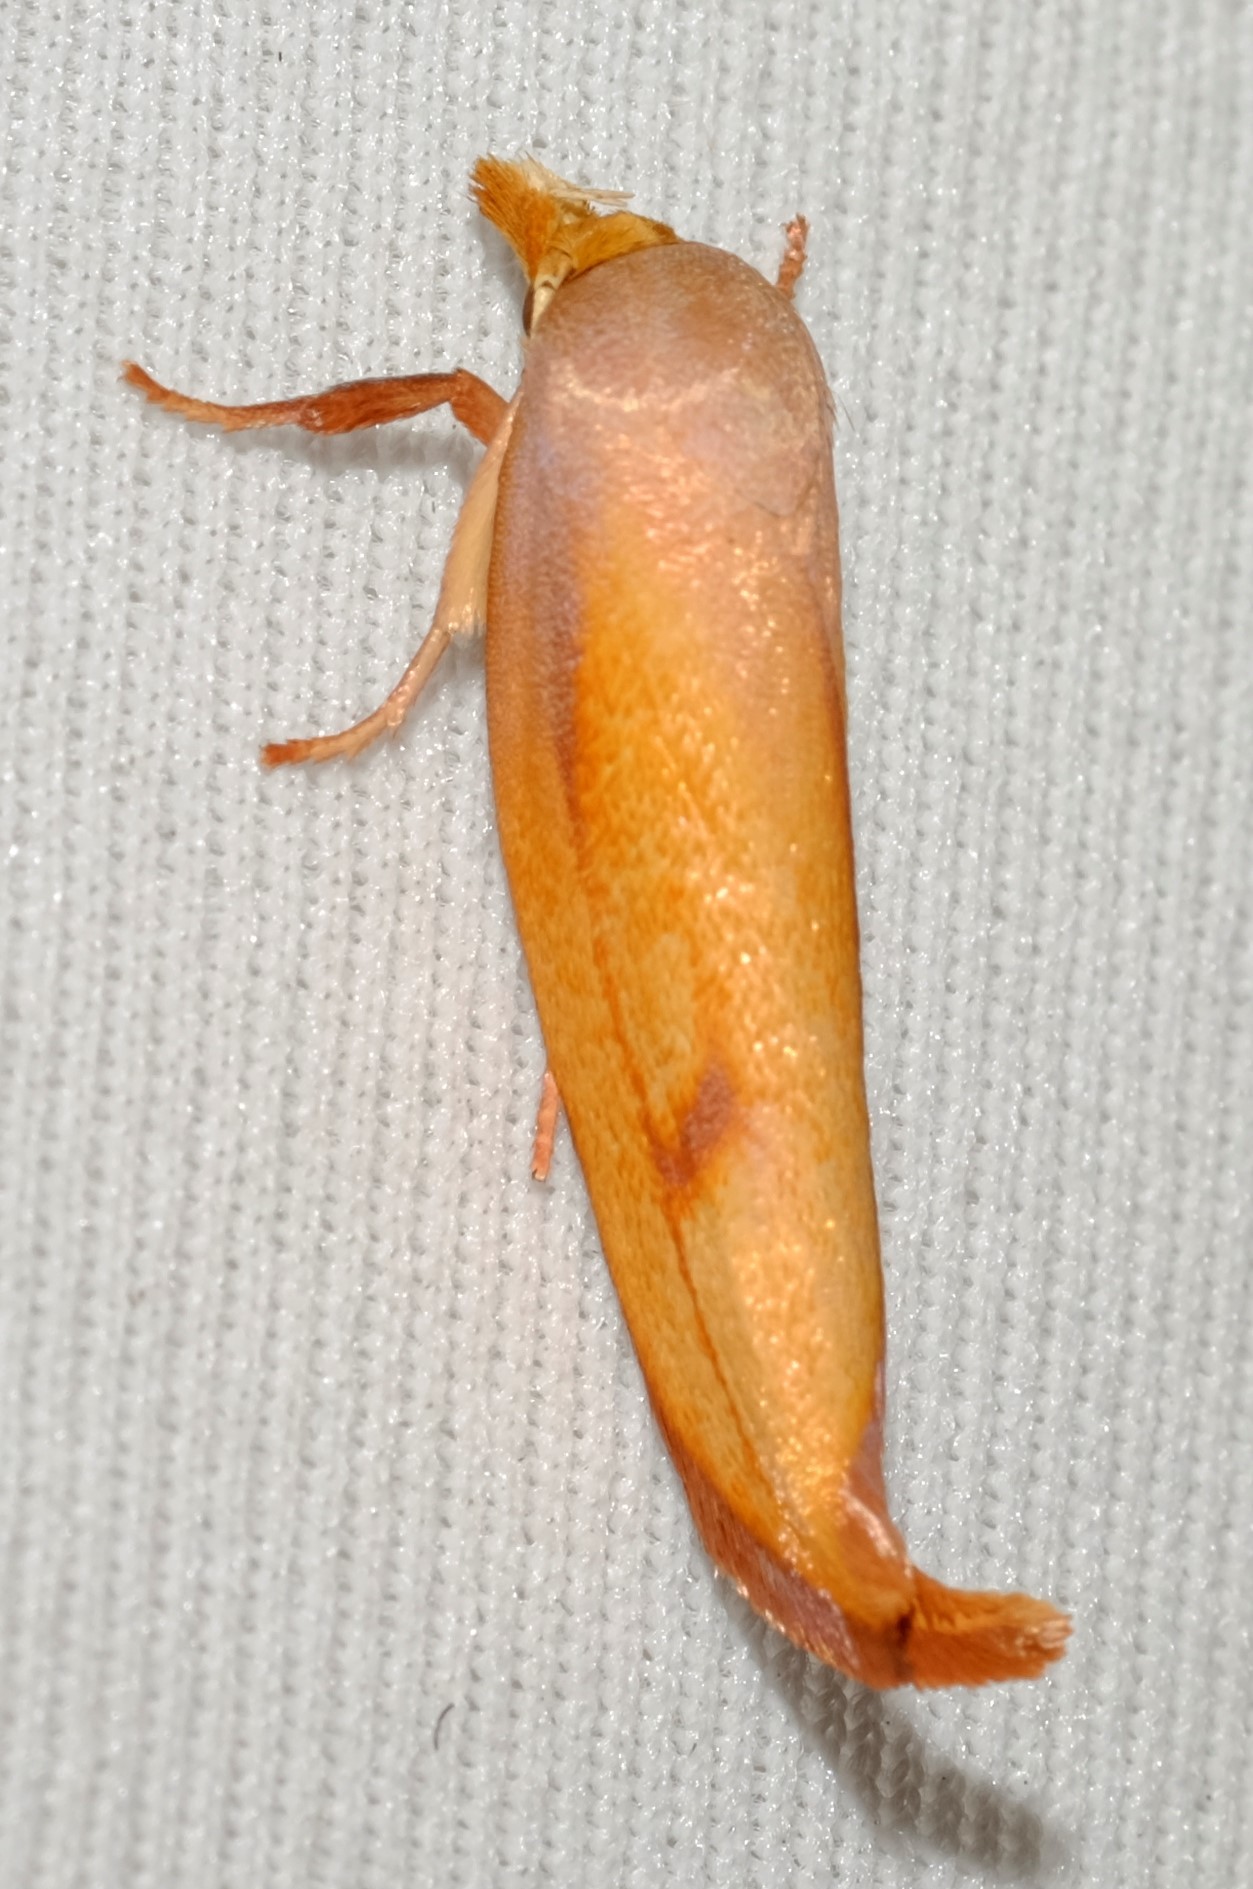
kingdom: Animalia
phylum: Arthropoda
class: Insecta
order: Lepidoptera
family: Oecophoridae
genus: Wingia
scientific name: Wingia aurata
